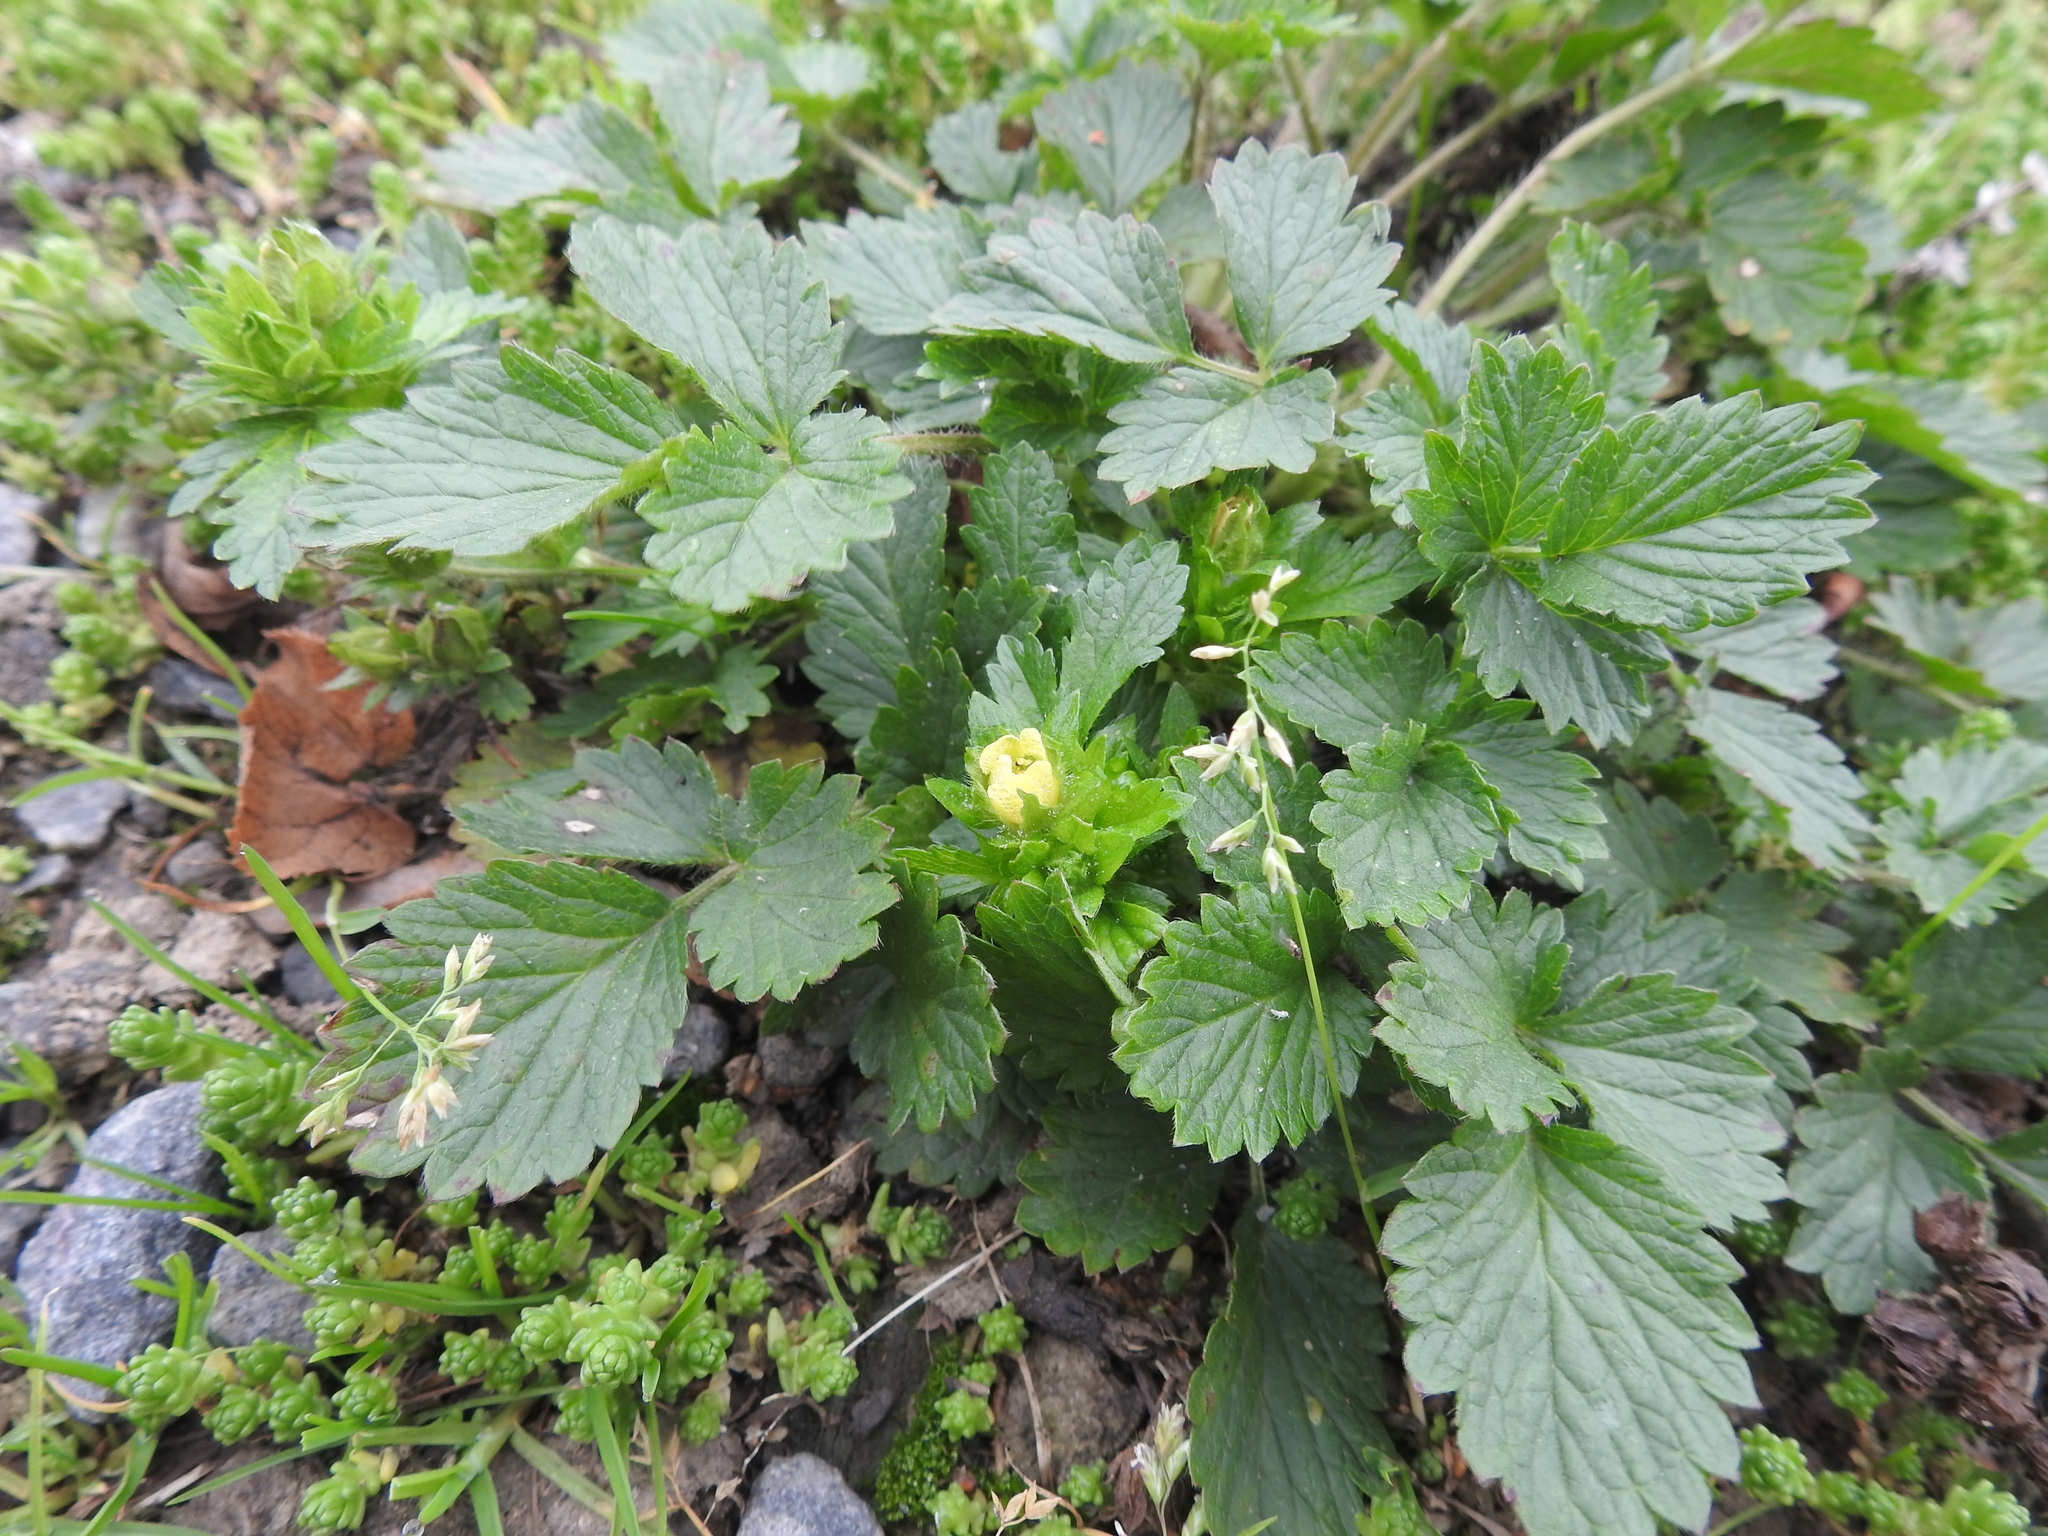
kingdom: Plantae
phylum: Tracheophyta
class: Magnoliopsida
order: Rosales
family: Rosaceae
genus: Potentilla
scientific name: Potentilla norvegica
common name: Ternate-leaved cinquefoil
